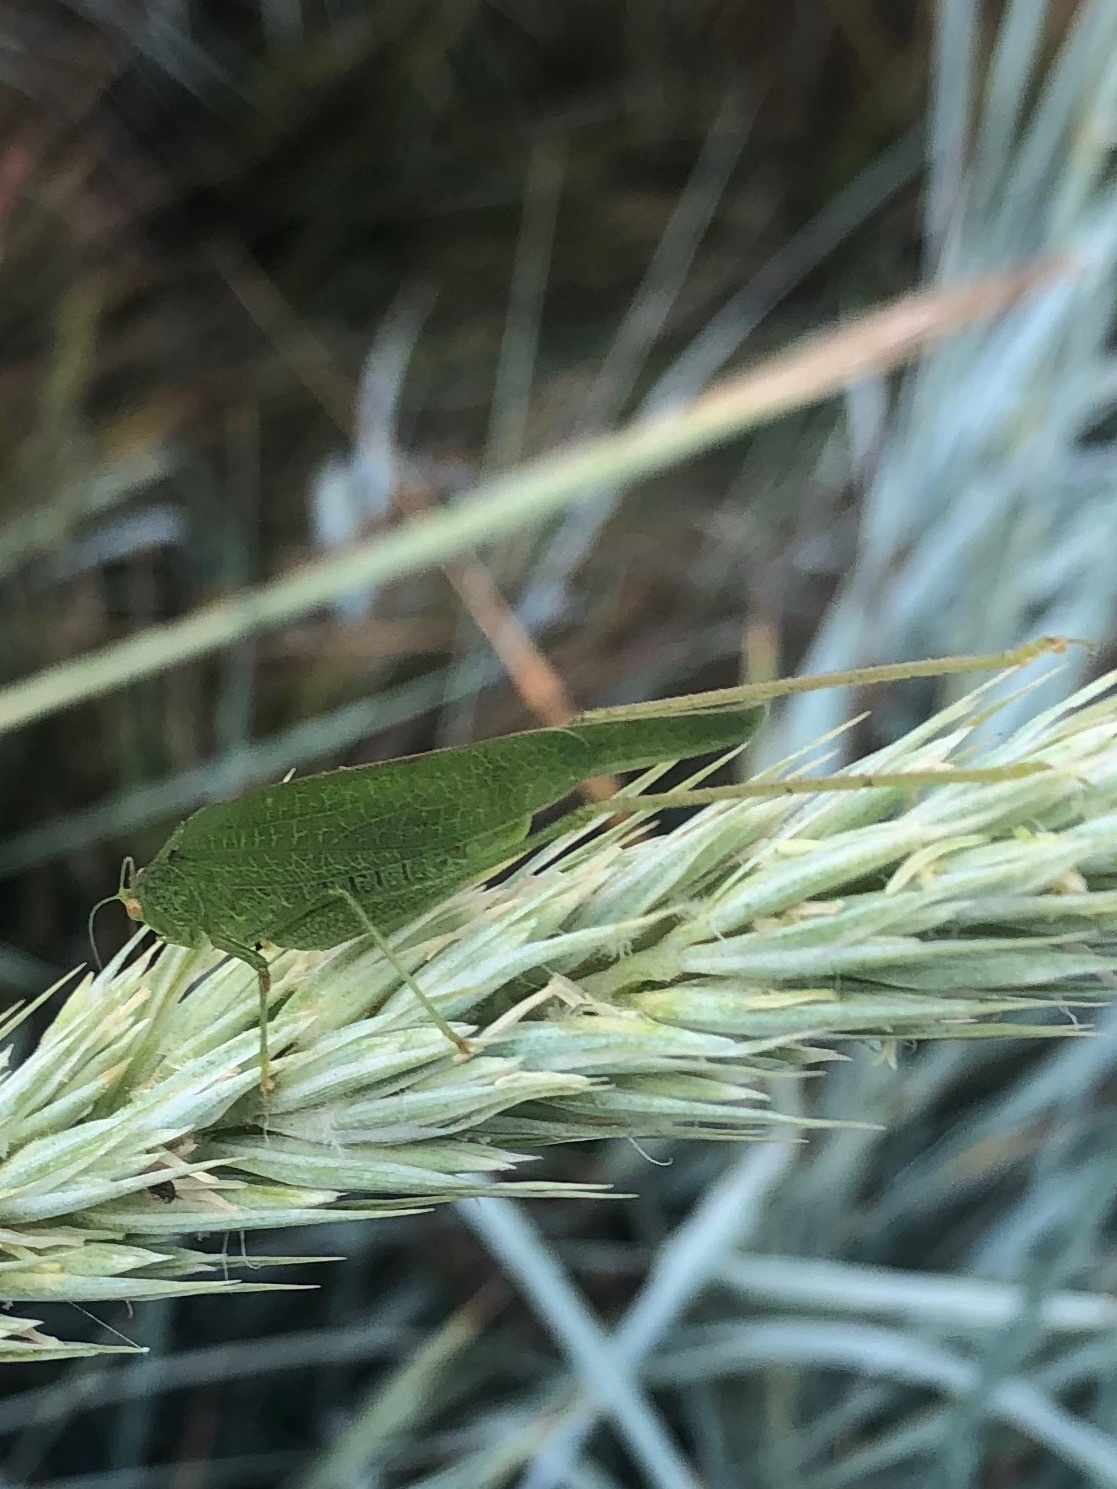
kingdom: Animalia
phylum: Arthropoda
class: Insecta
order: Orthoptera
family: Tettigoniidae
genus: Phaneroptera
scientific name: Phaneroptera nana
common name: Southern sickle bush-cricket
